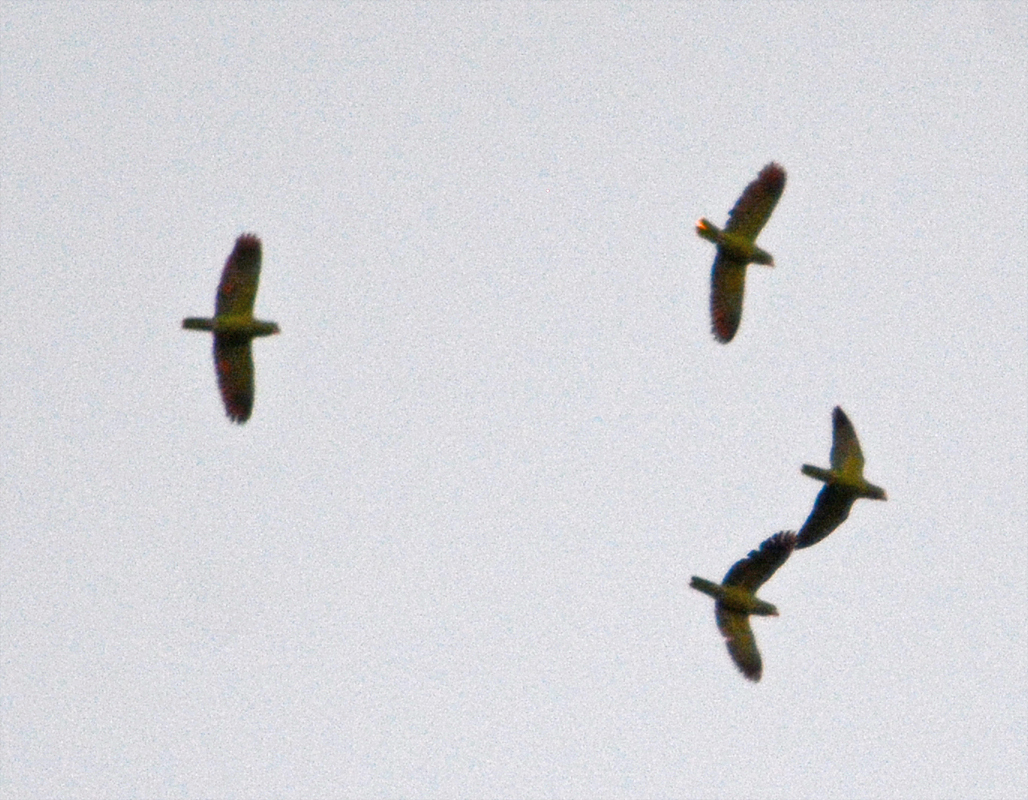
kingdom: Animalia
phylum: Chordata
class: Aves
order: Psittaciformes
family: Psittacidae
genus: Amazona
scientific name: Amazona
